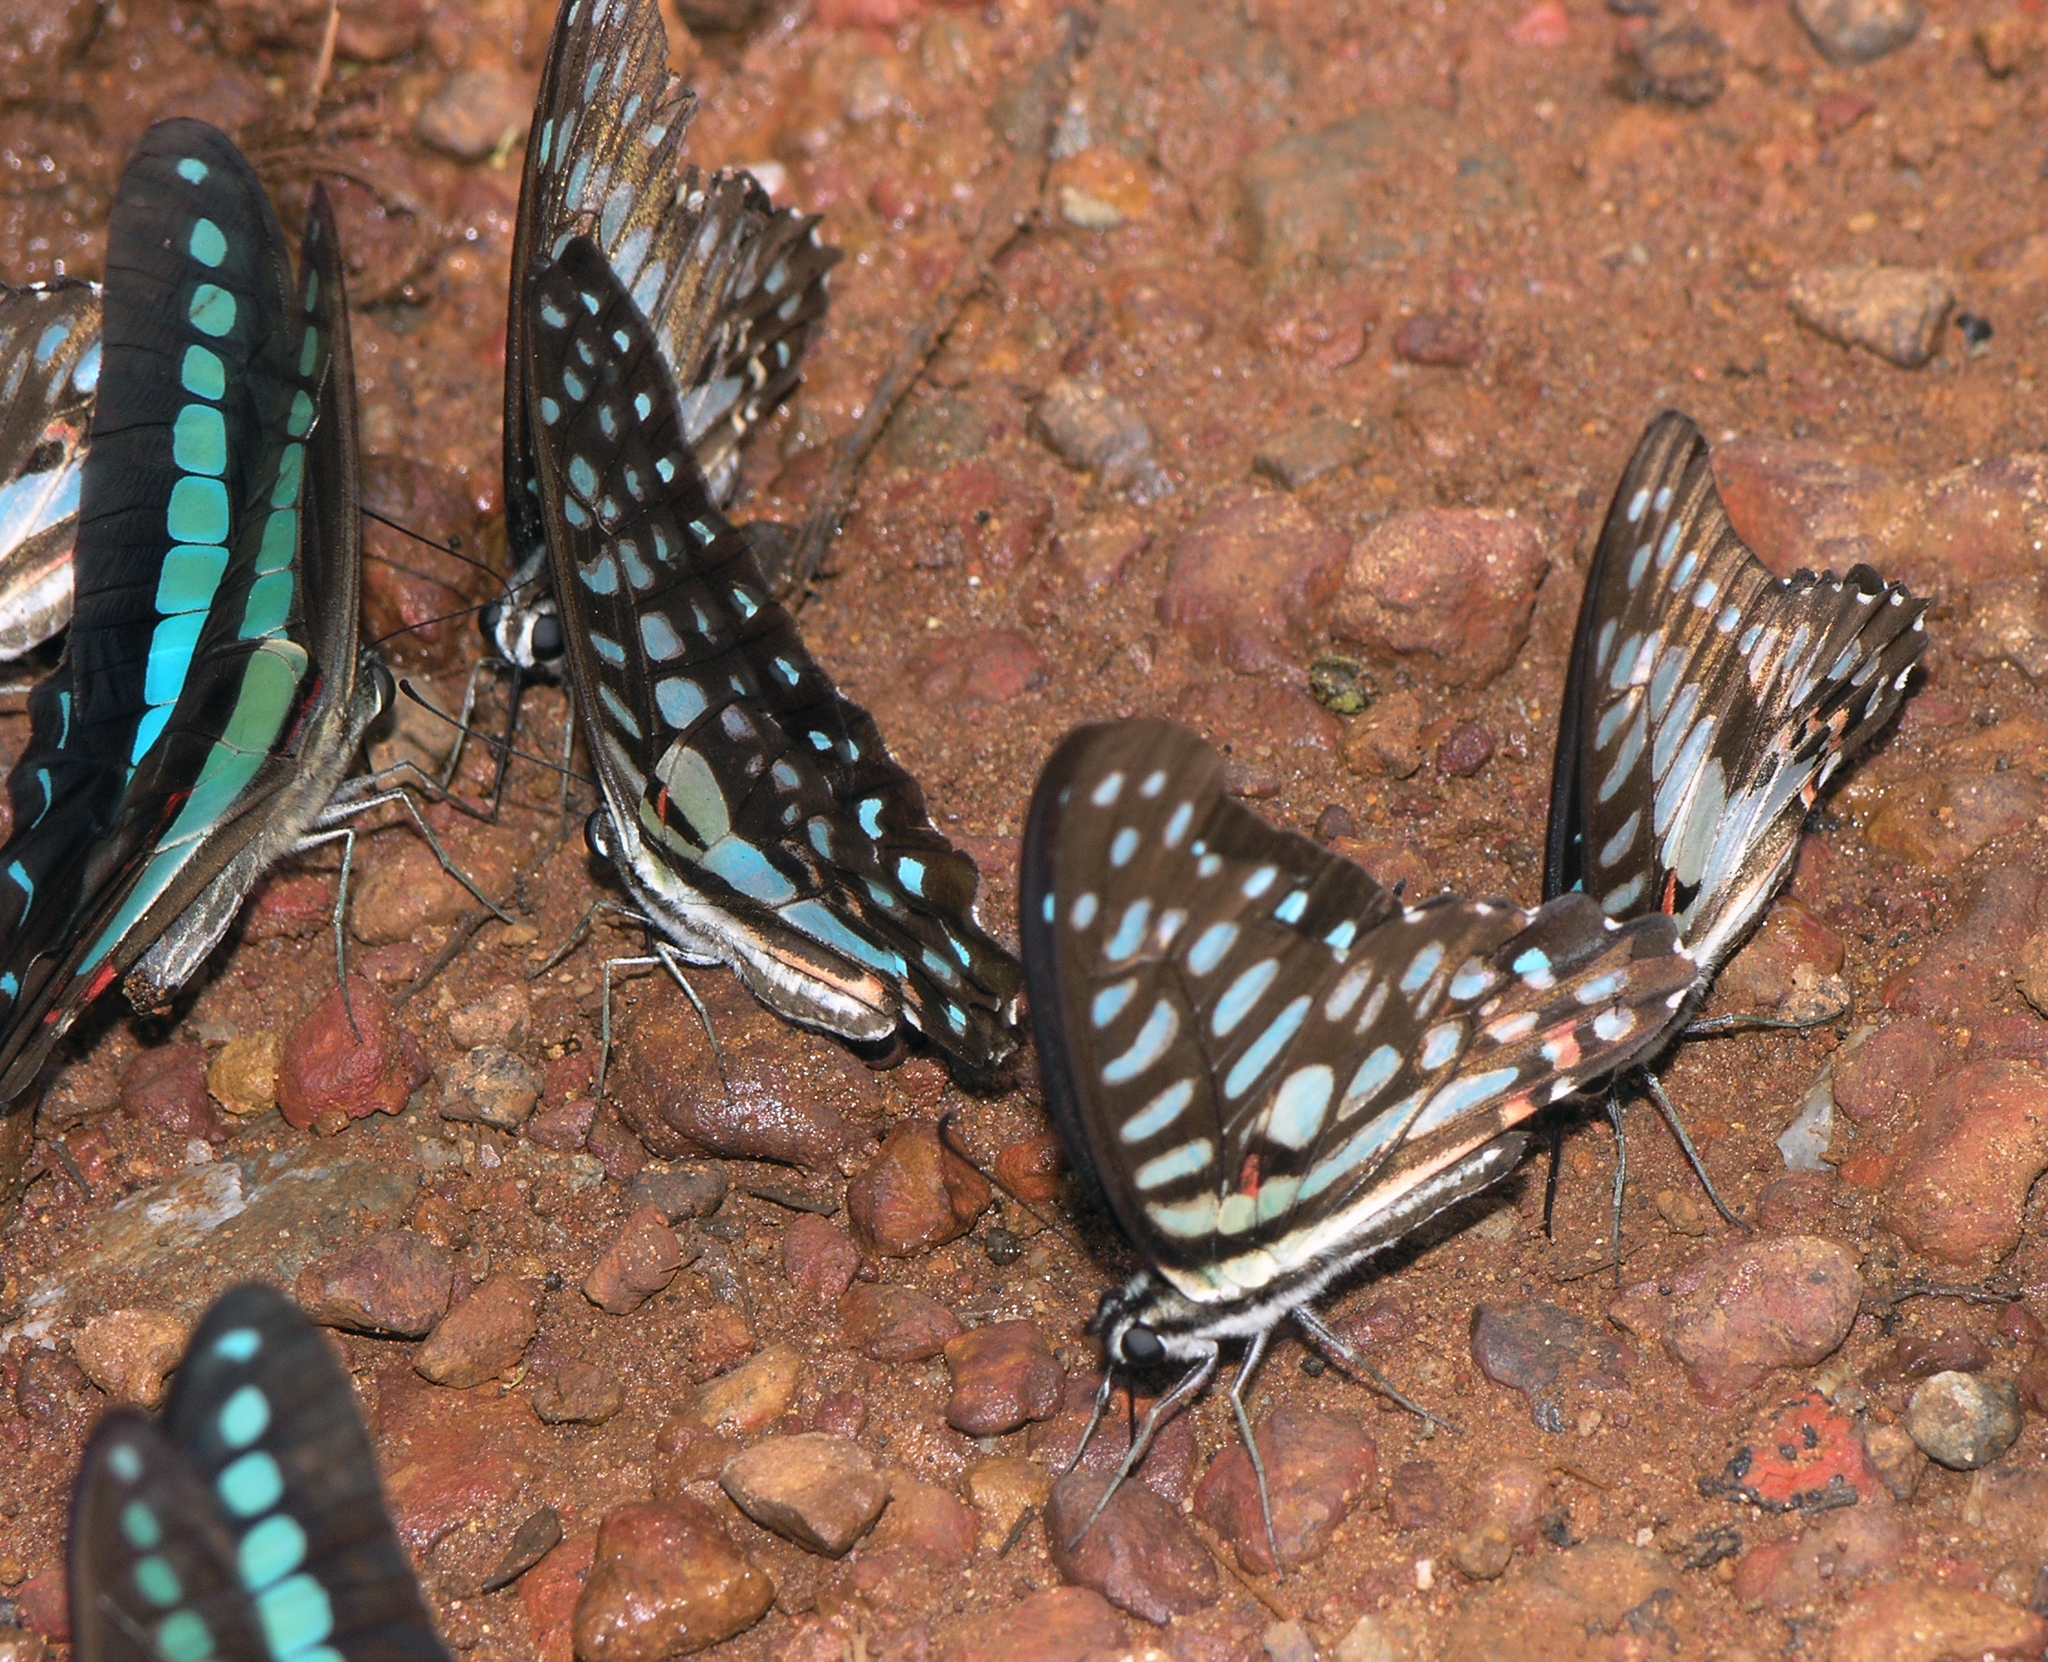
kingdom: Animalia
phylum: Arthropoda
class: Insecta
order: Lepidoptera
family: Papilionidae
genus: Graphium
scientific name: Graphium doson
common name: Common jay
